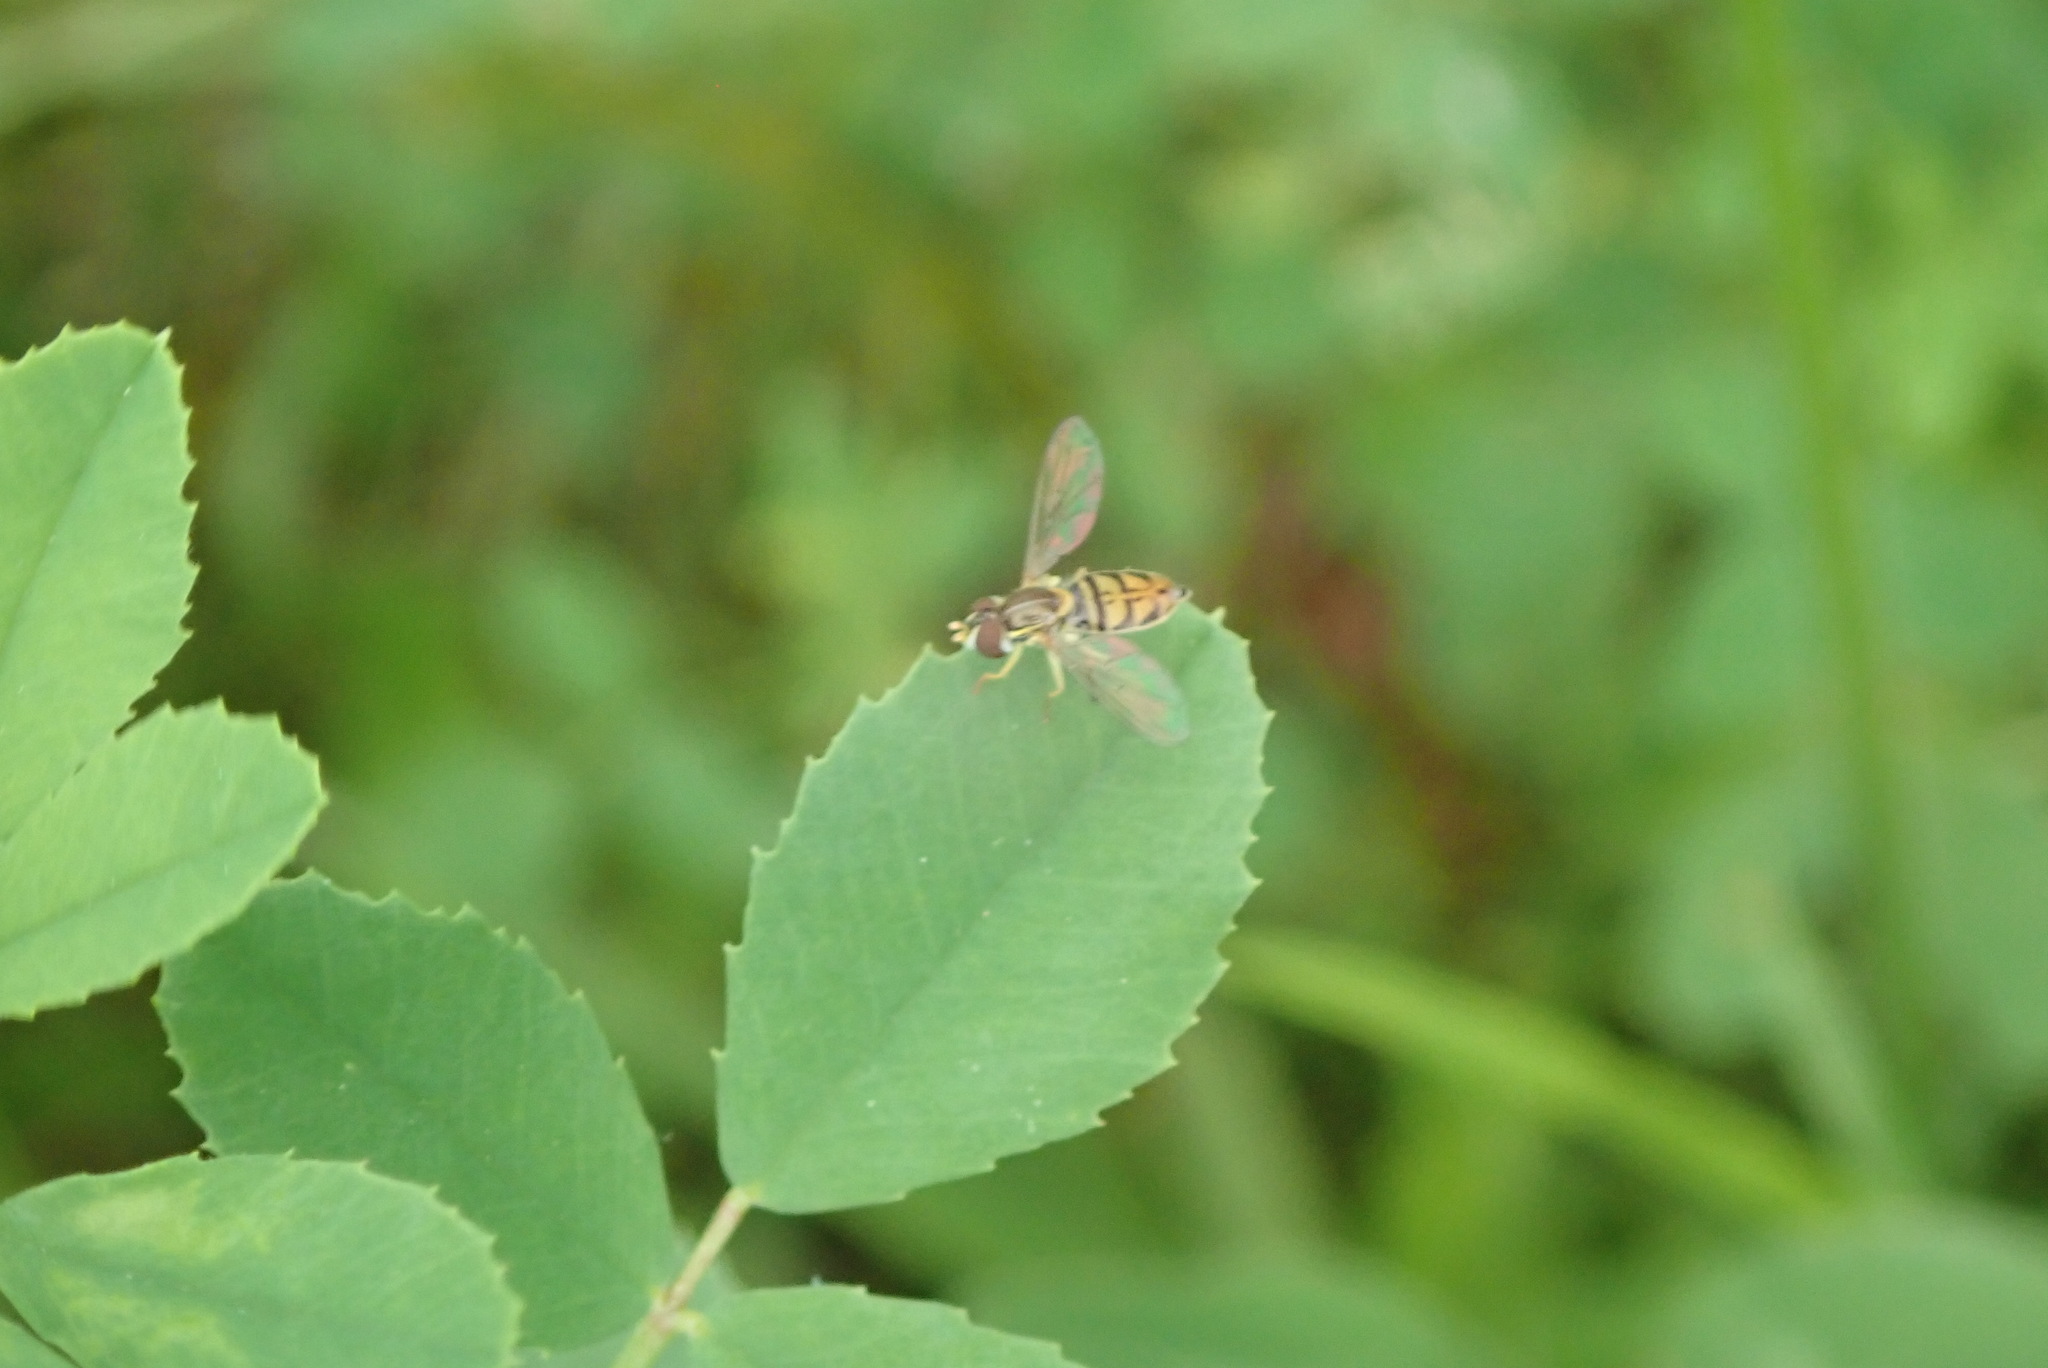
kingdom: Animalia
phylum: Arthropoda
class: Insecta
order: Diptera
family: Syrphidae
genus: Toxomerus
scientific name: Toxomerus marginatus
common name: Syrphid fly
